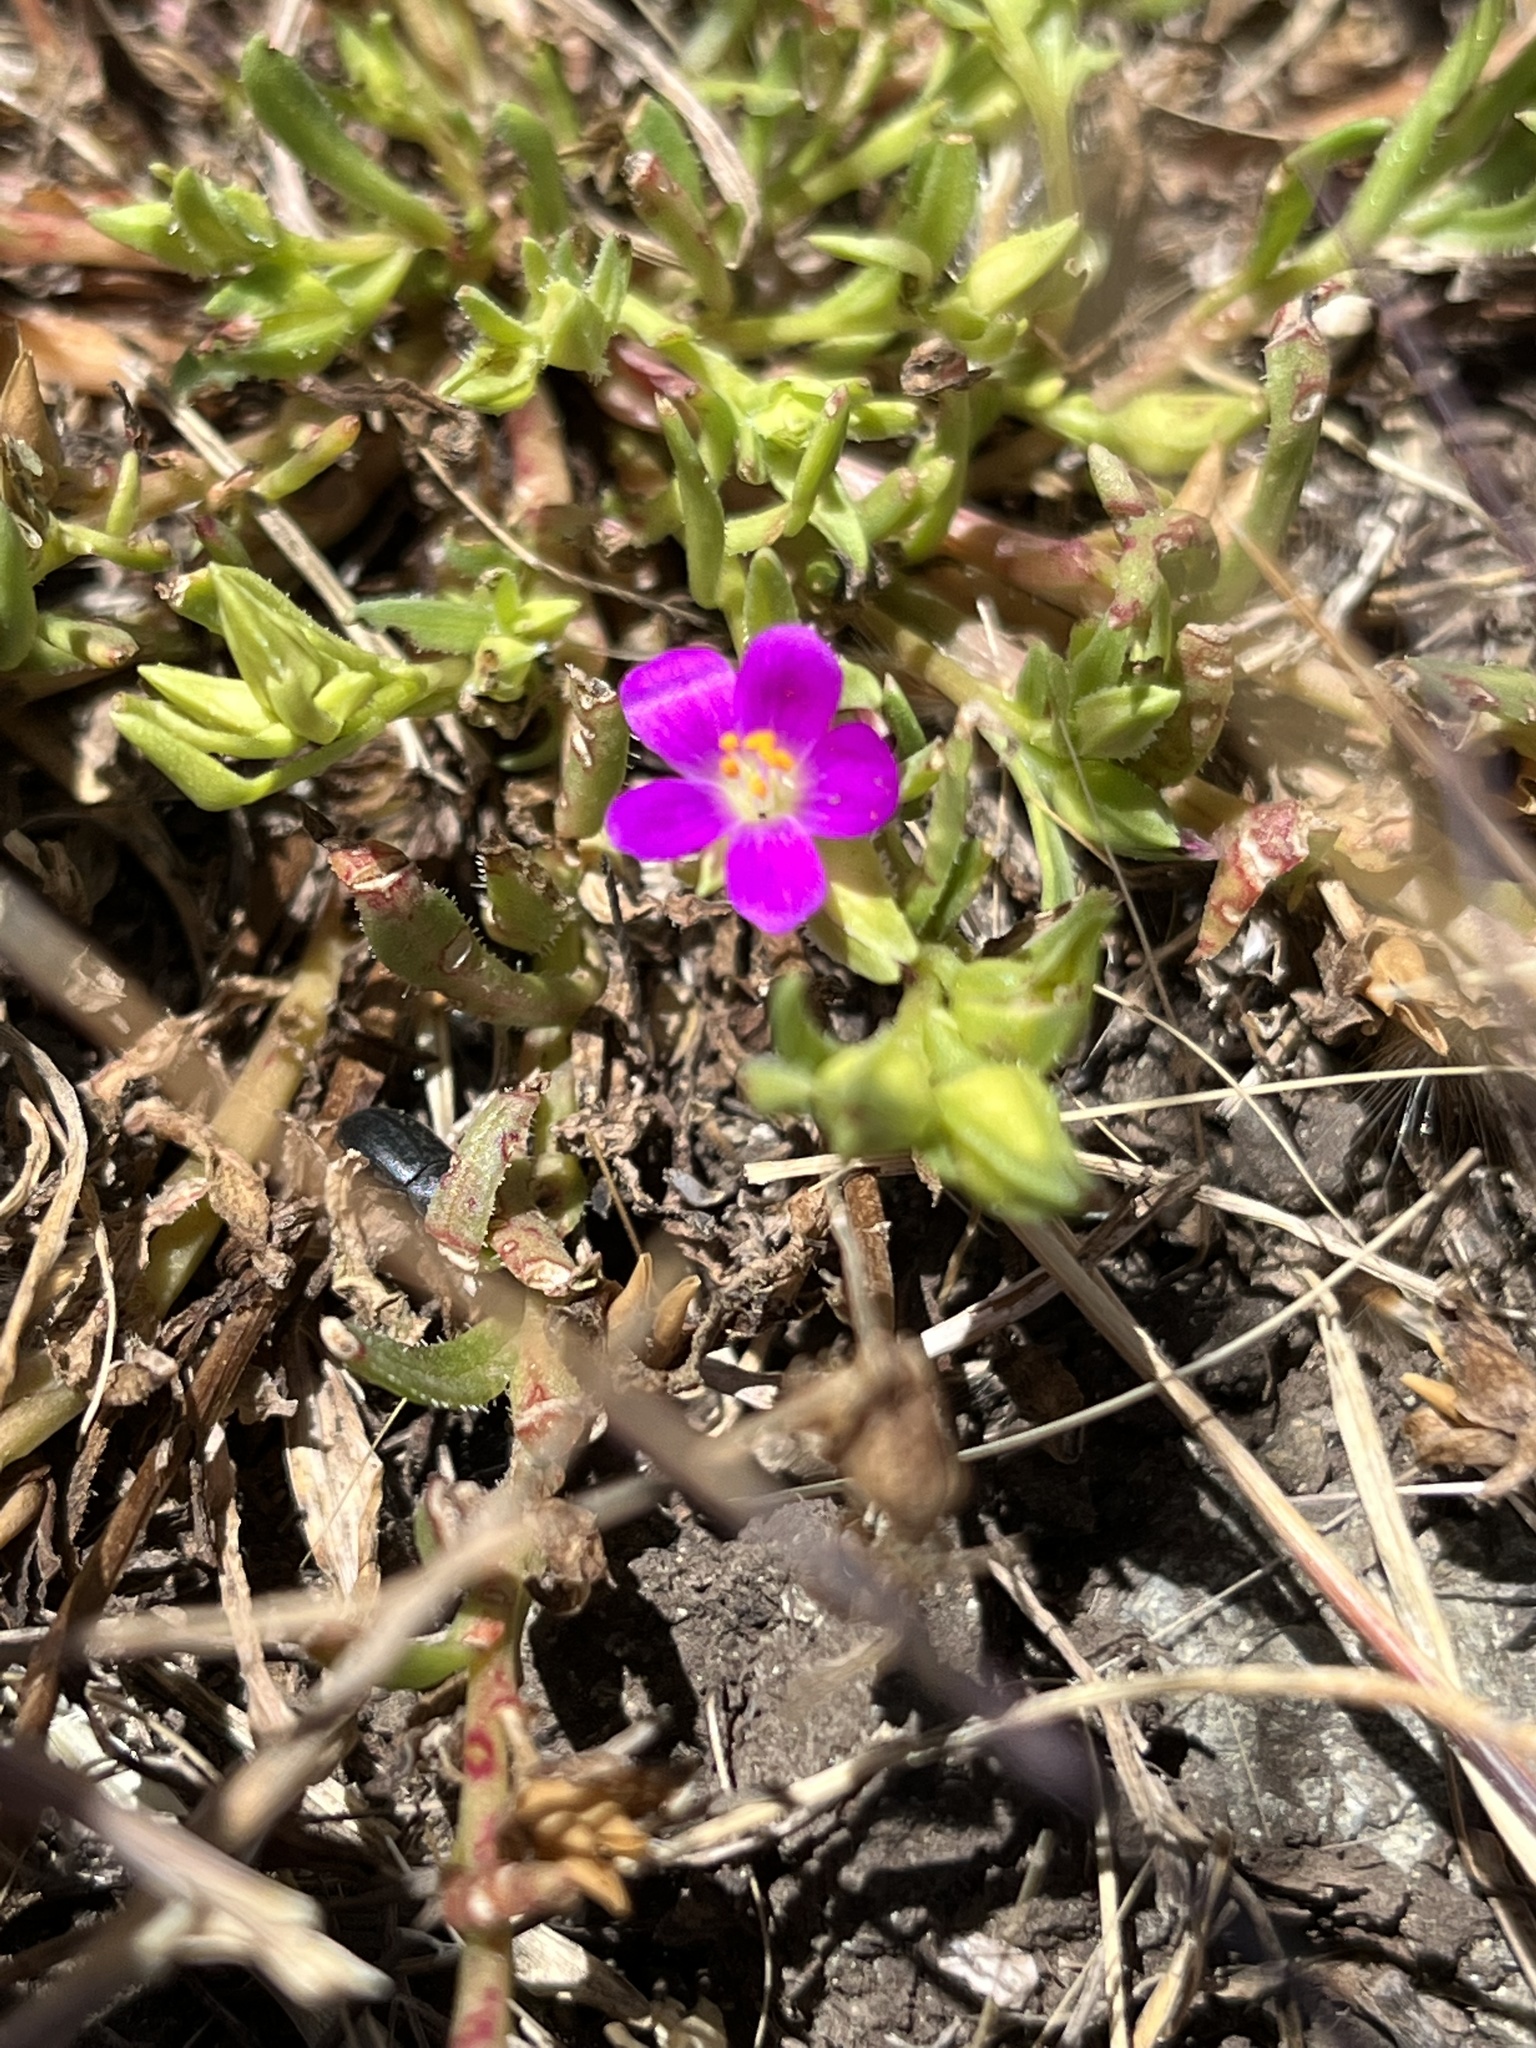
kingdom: Plantae
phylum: Tracheophyta
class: Magnoliopsida
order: Caryophyllales
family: Montiaceae
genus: Calandrinia
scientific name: Calandrinia menziesii
